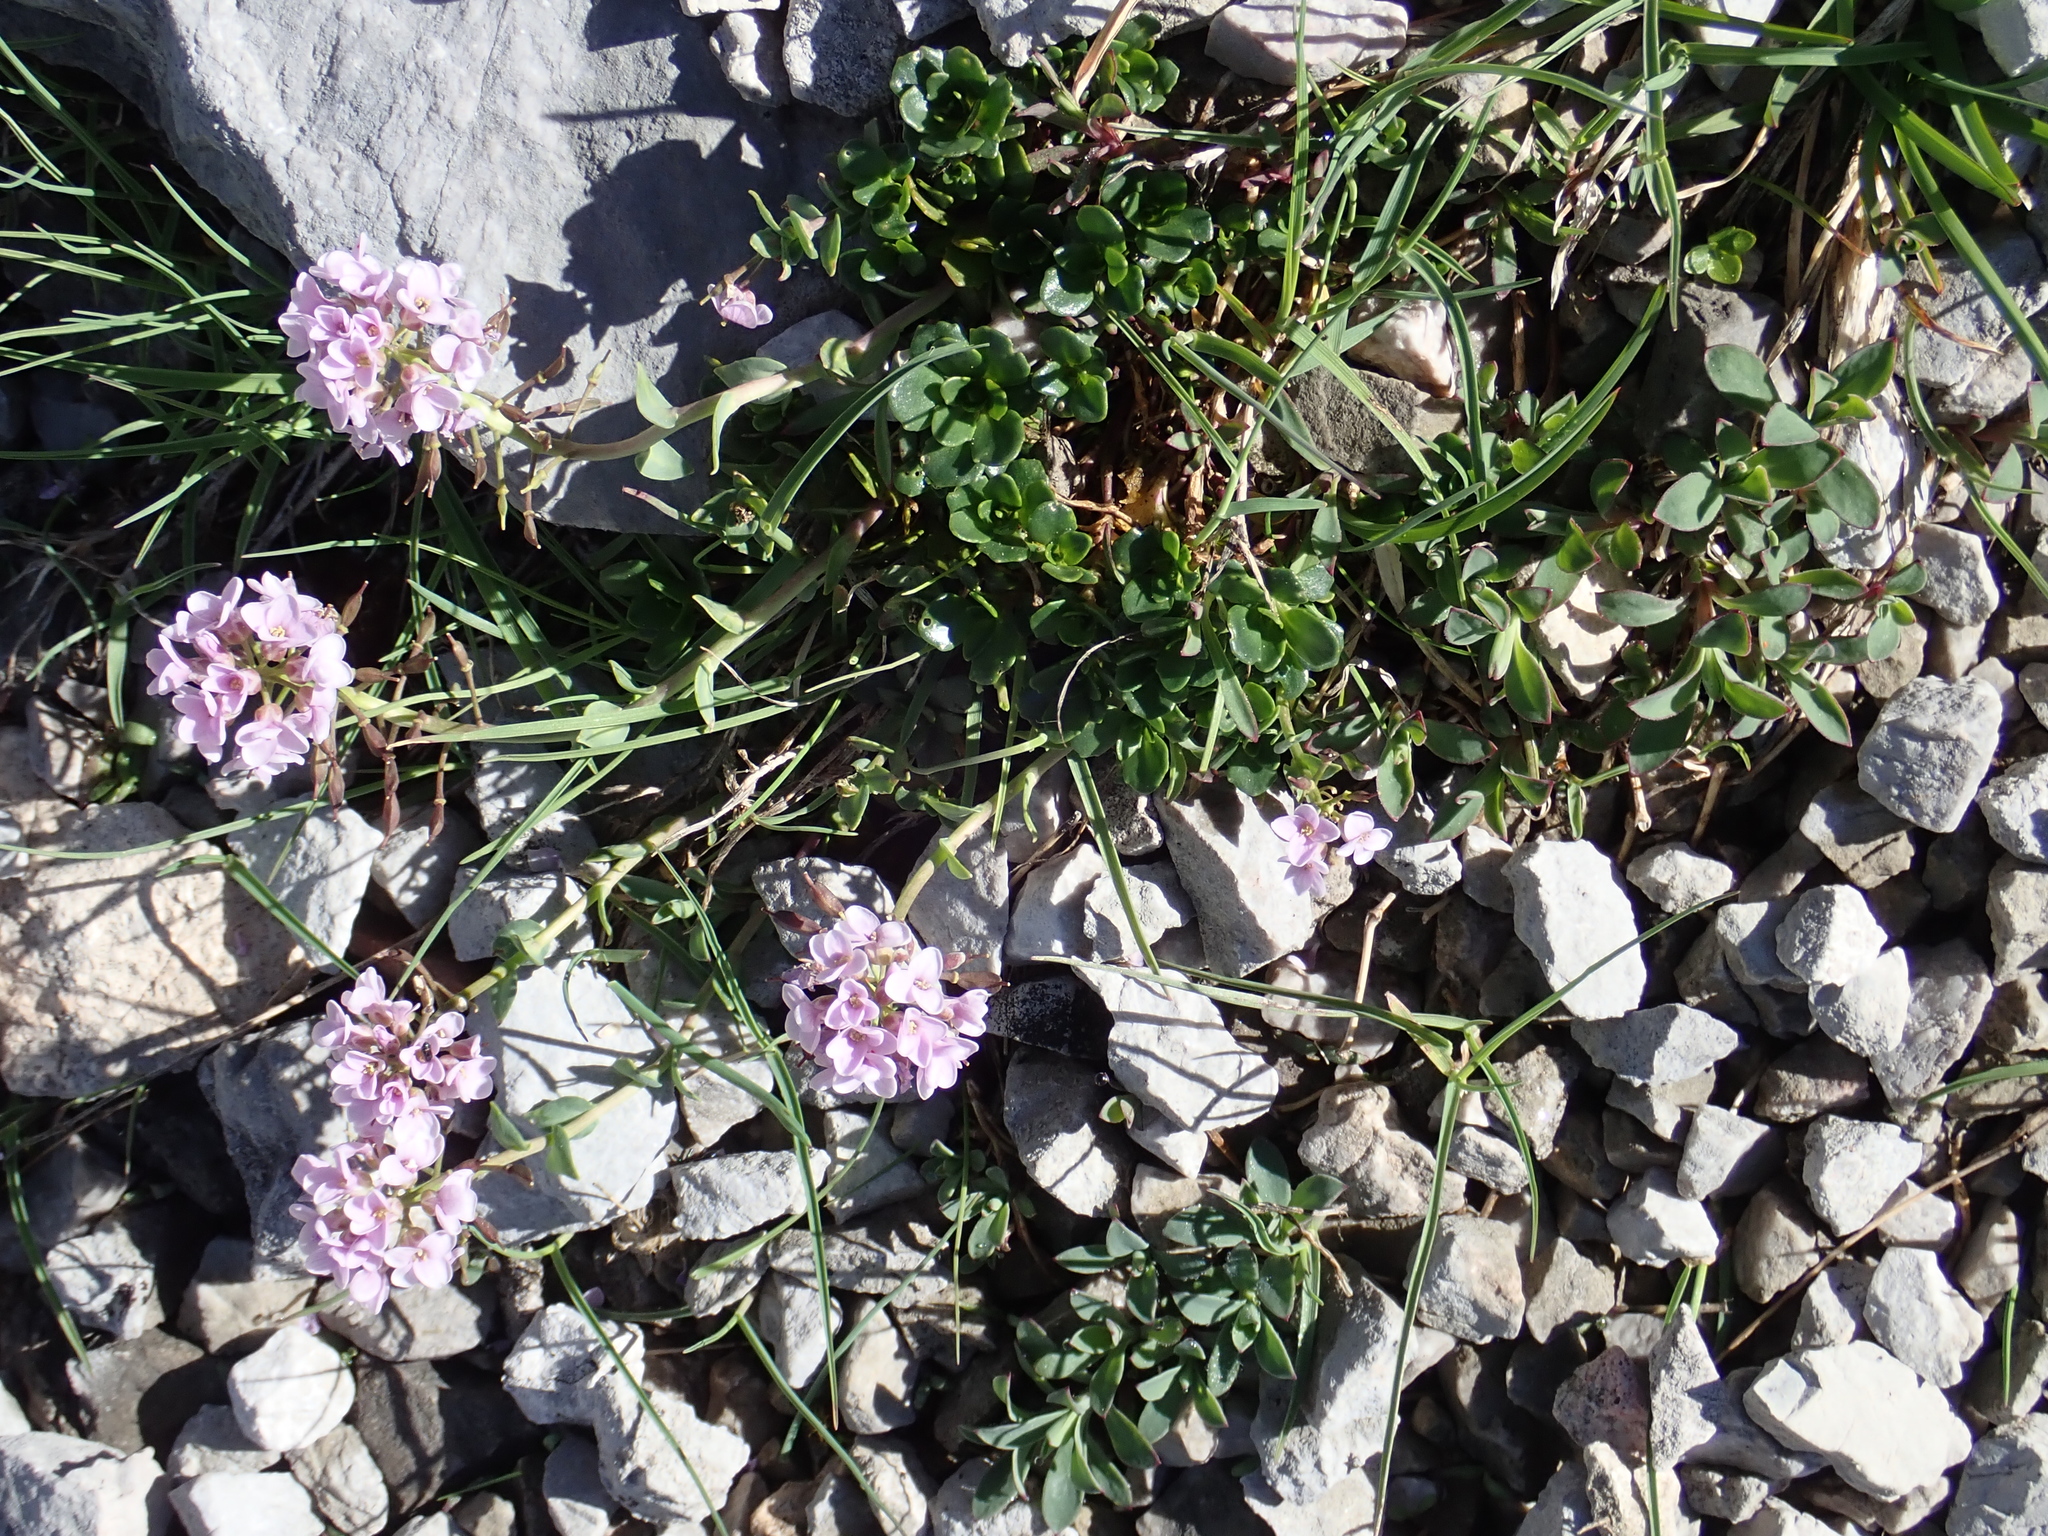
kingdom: Plantae
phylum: Tracheophyta
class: Magnoliopsida
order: Brassicales
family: Brassicaceae
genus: Noccaea
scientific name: Noccaea rotundifolia
